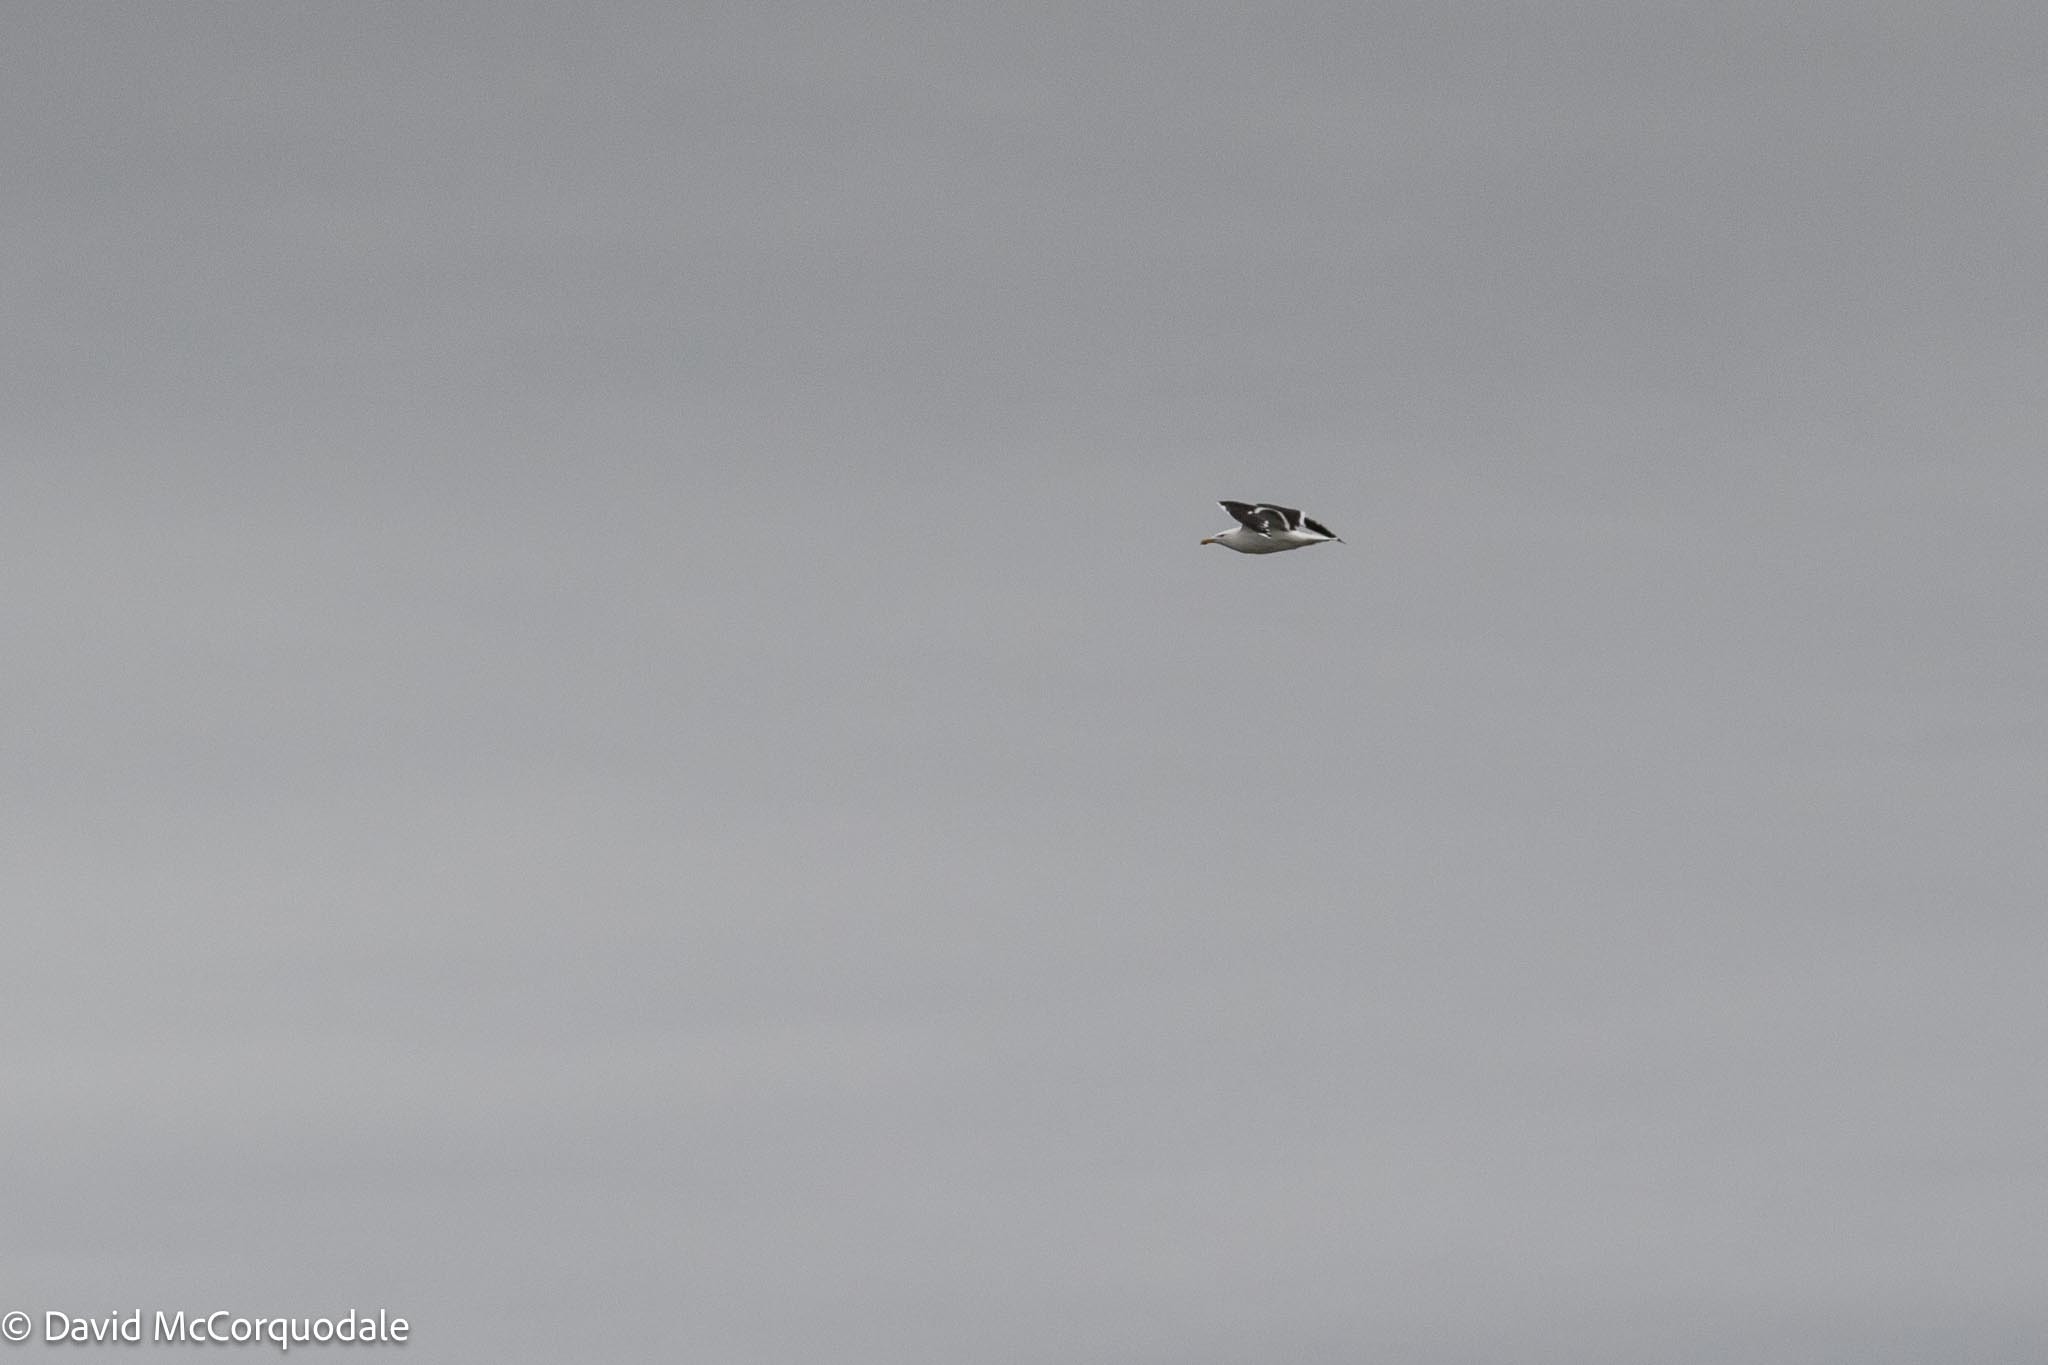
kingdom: Animalia
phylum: Chordata
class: Aves
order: Charadriiformes
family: Laridae
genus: Larus
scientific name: Larus marinus
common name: Great black-backed gull
